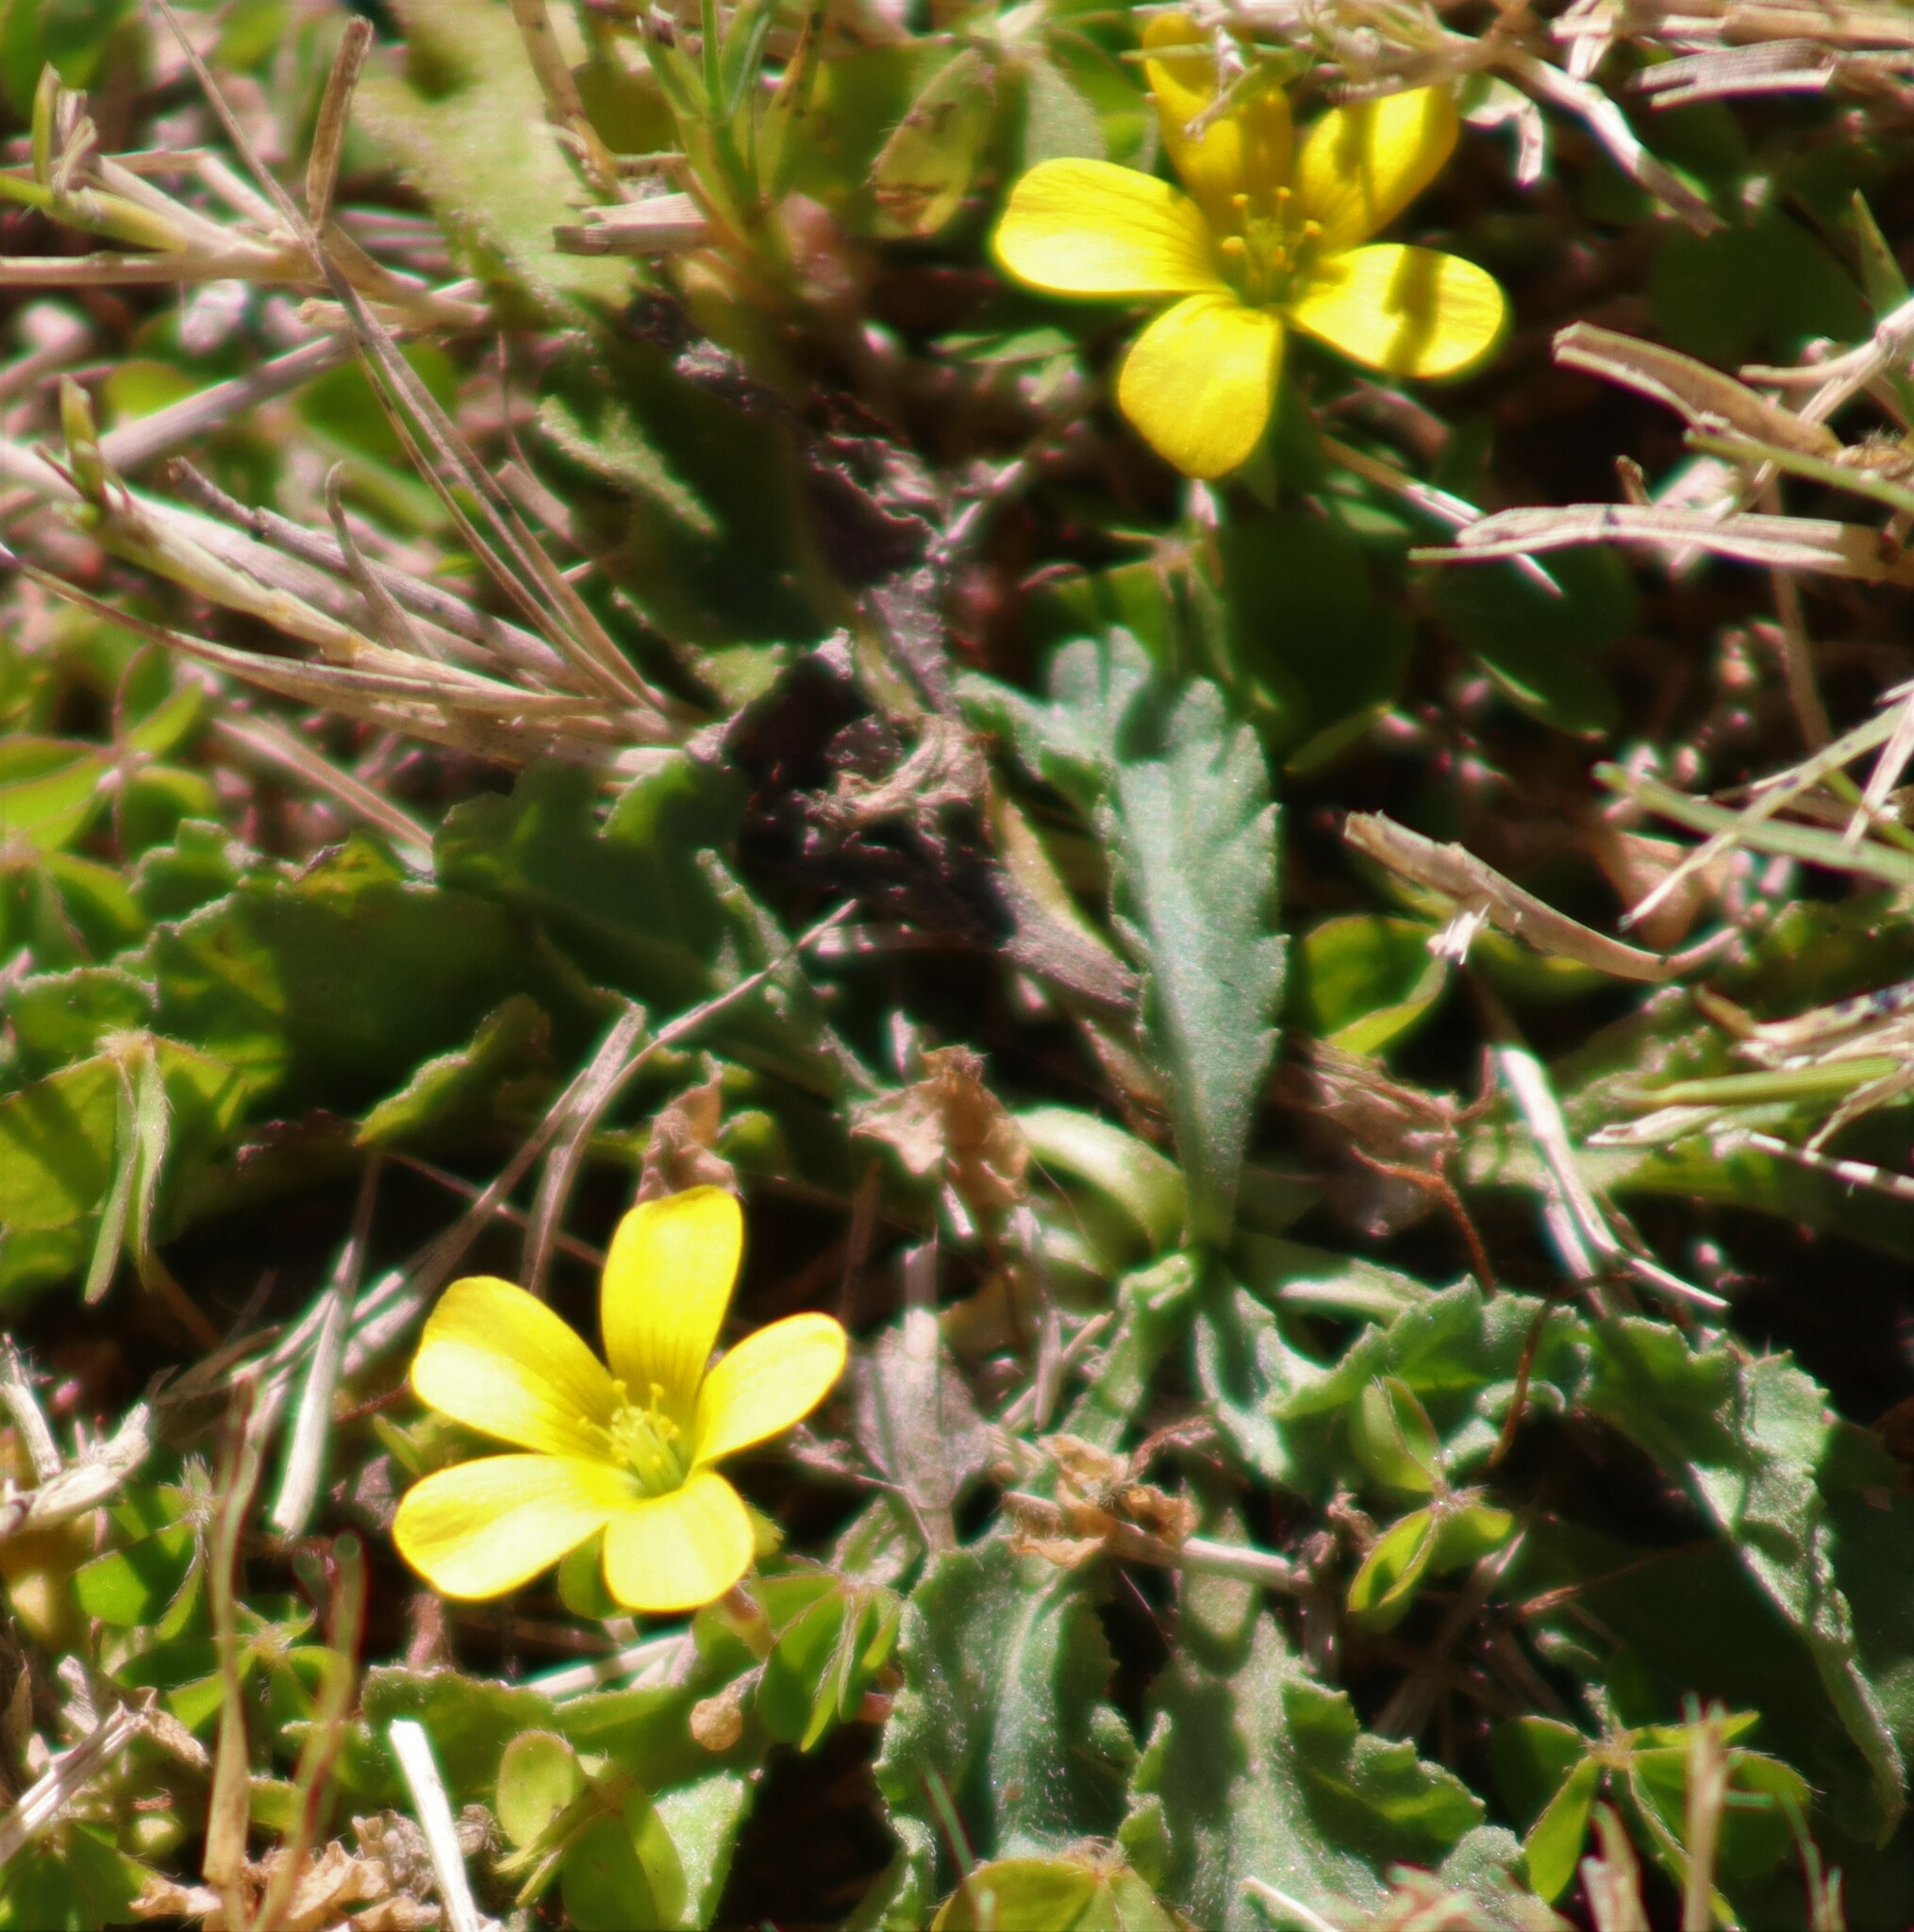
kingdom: Plantae
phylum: Tracheophyta
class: Magnoliopsida
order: Oxalidales
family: Oxalidaceae
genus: Oxalis
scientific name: Oxalis corniculata
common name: Procumbent yellow-sorrel
